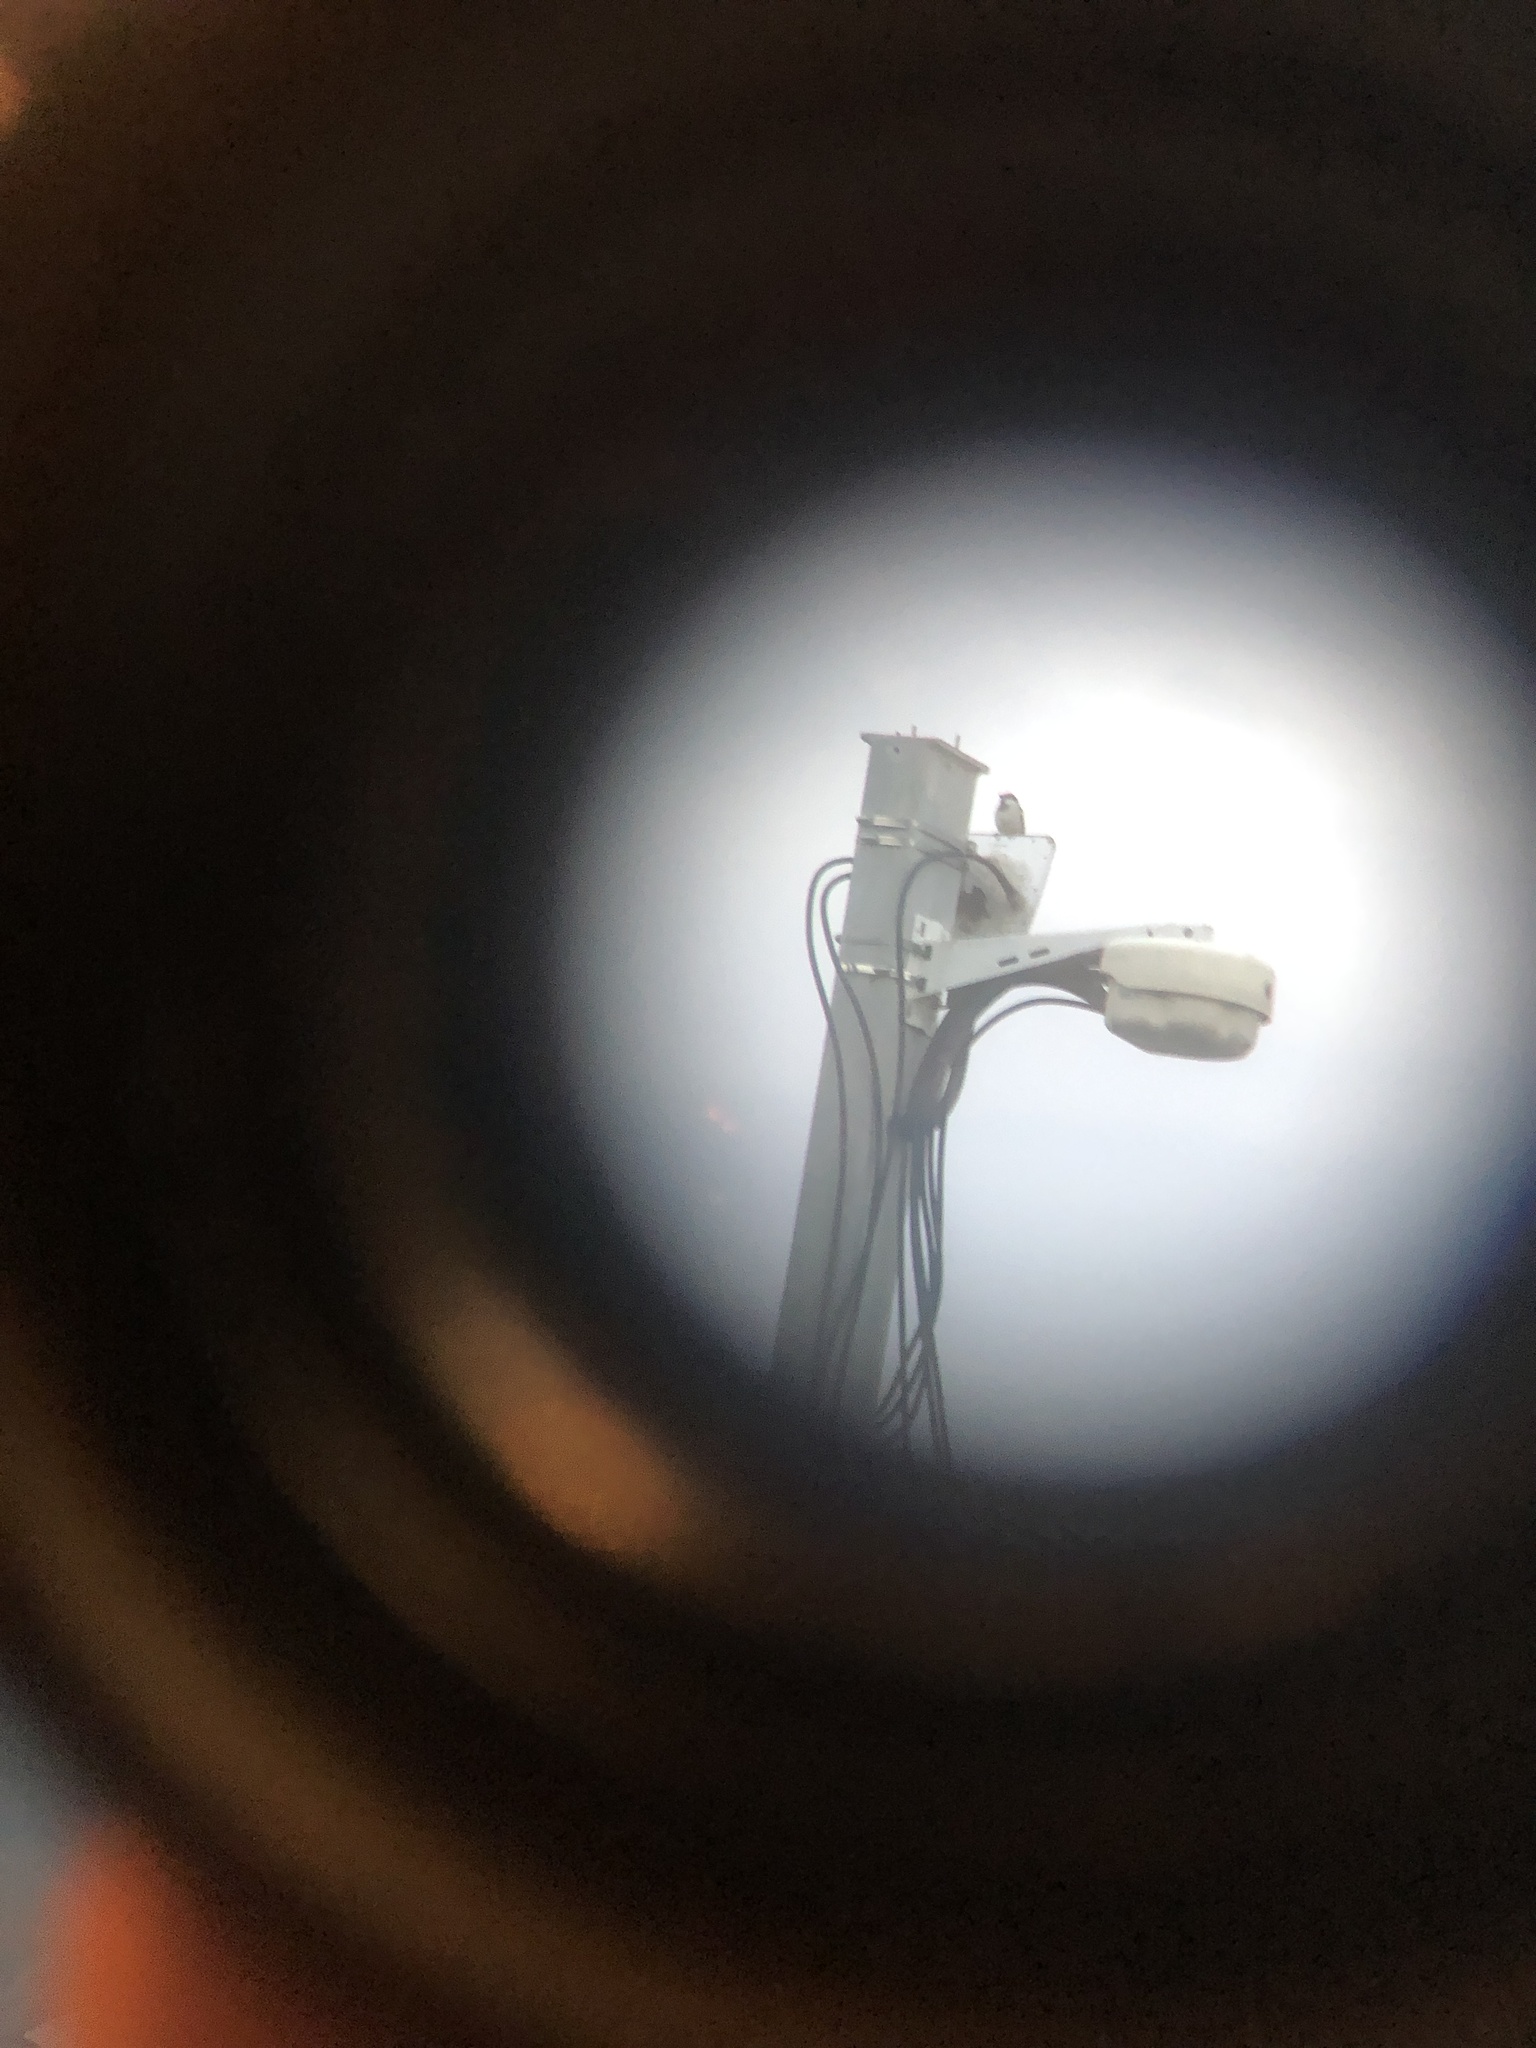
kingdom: Animalia
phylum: Chordata
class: Aves
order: Passeriformes
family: Passeridae
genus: Passer
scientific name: Passer domesticus
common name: House sparrow
